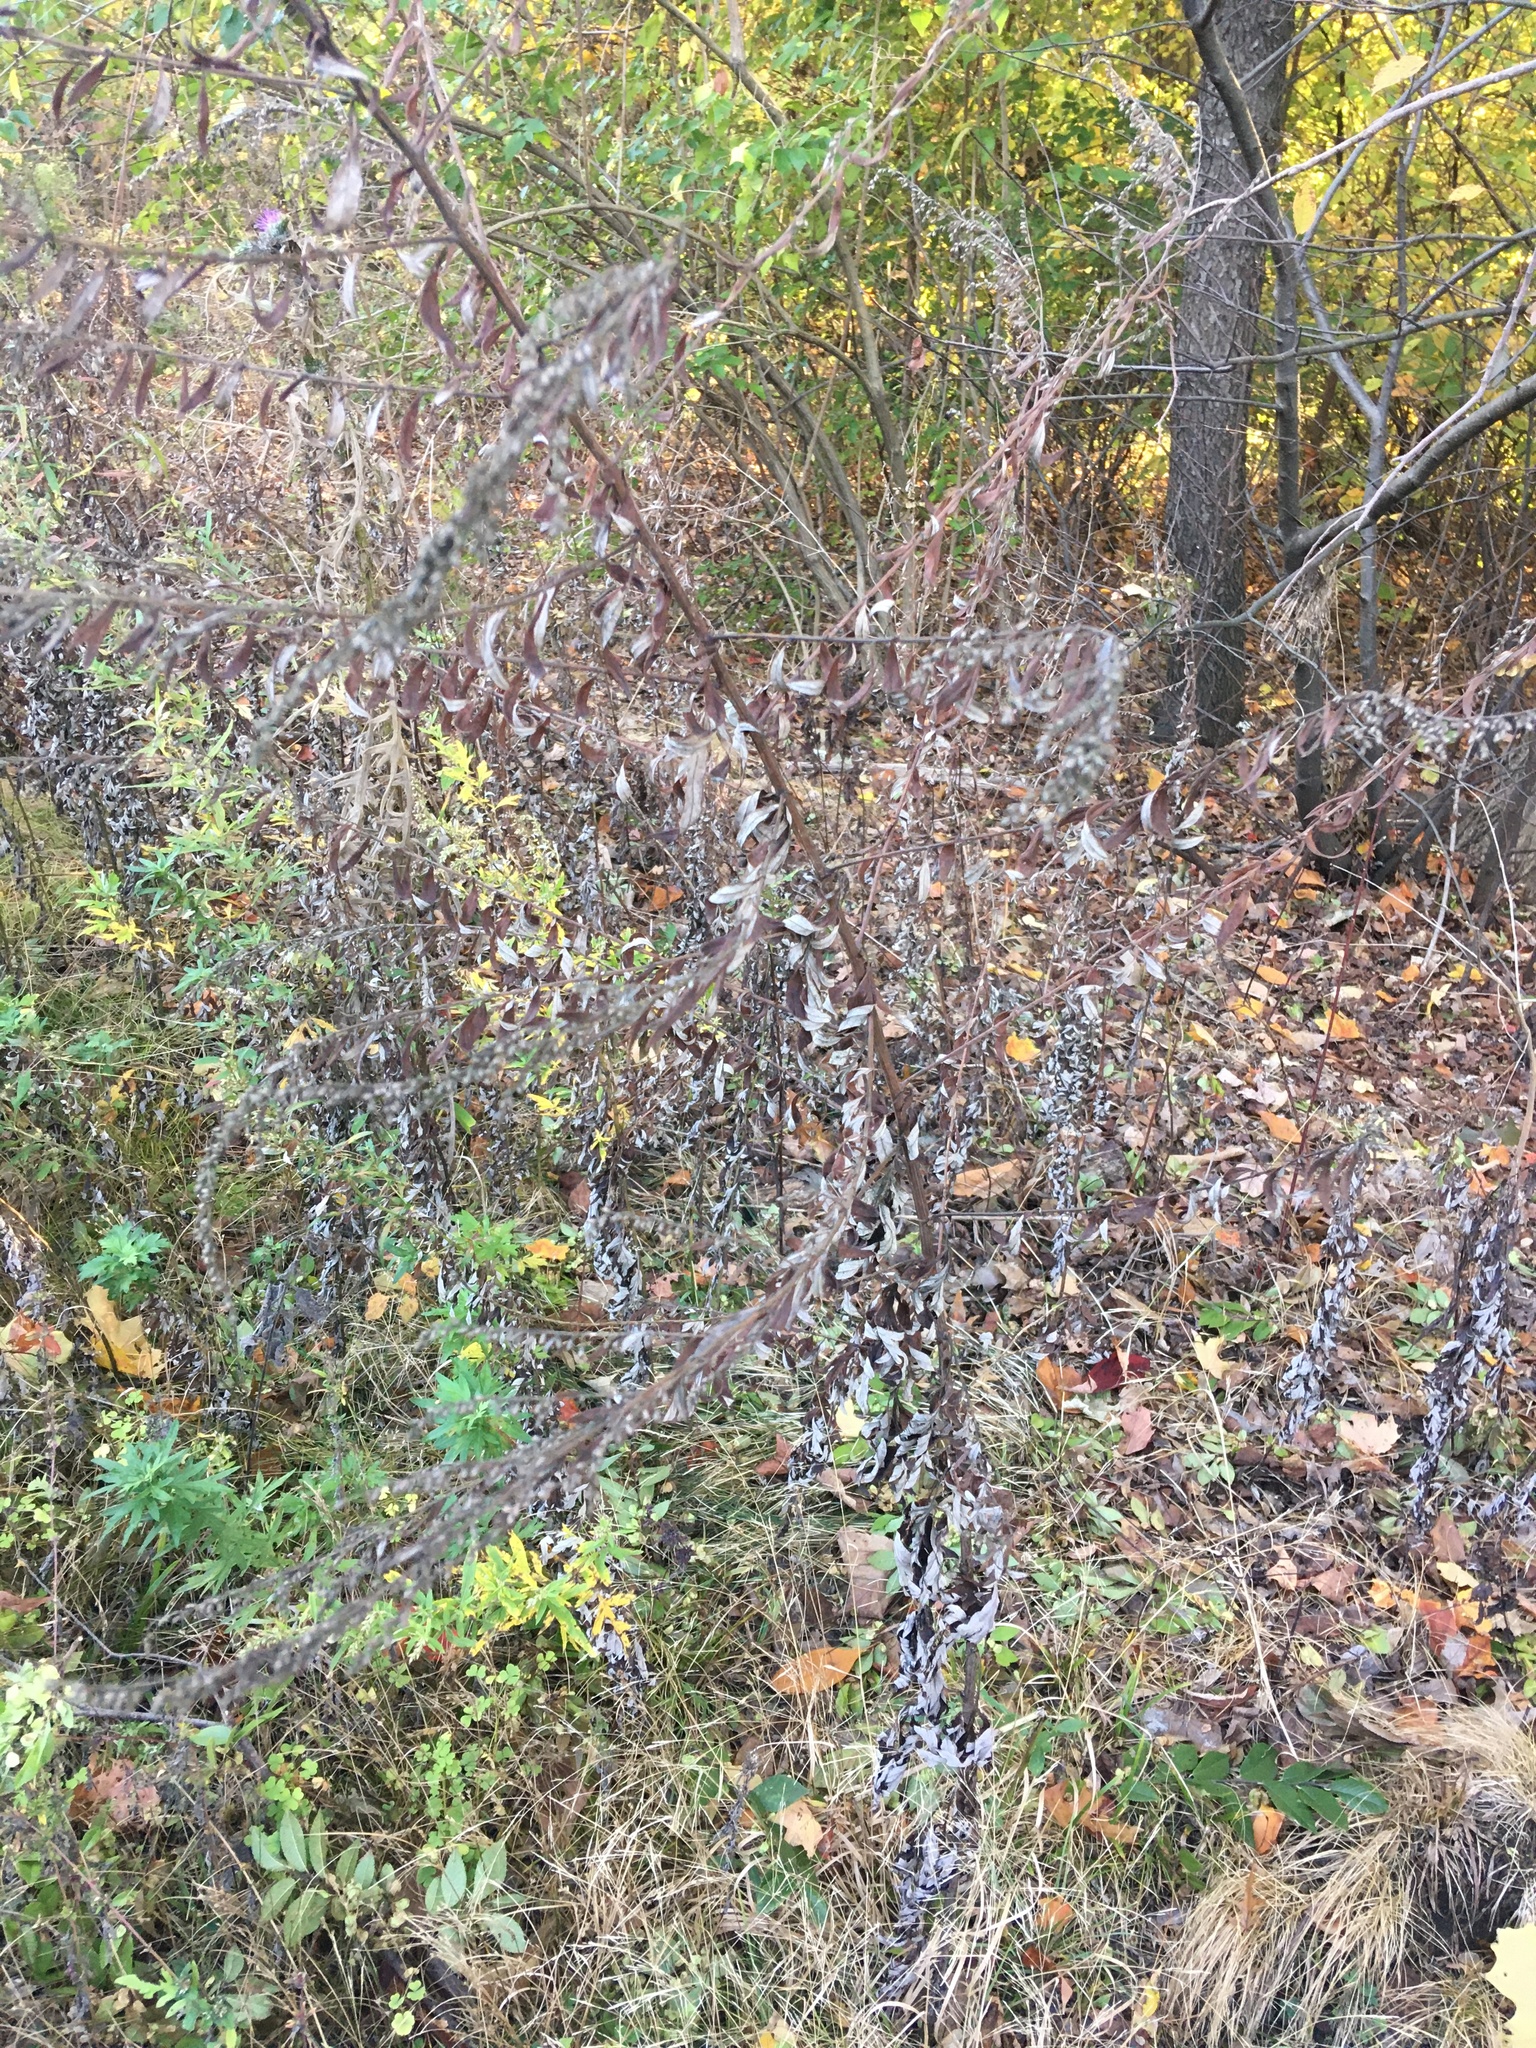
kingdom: Plantae
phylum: Tracheophyta
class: Magnoliopsida
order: Asterales
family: Asteraceae
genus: Artemisia
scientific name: Artemisia vulgaris
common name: Mugwort
